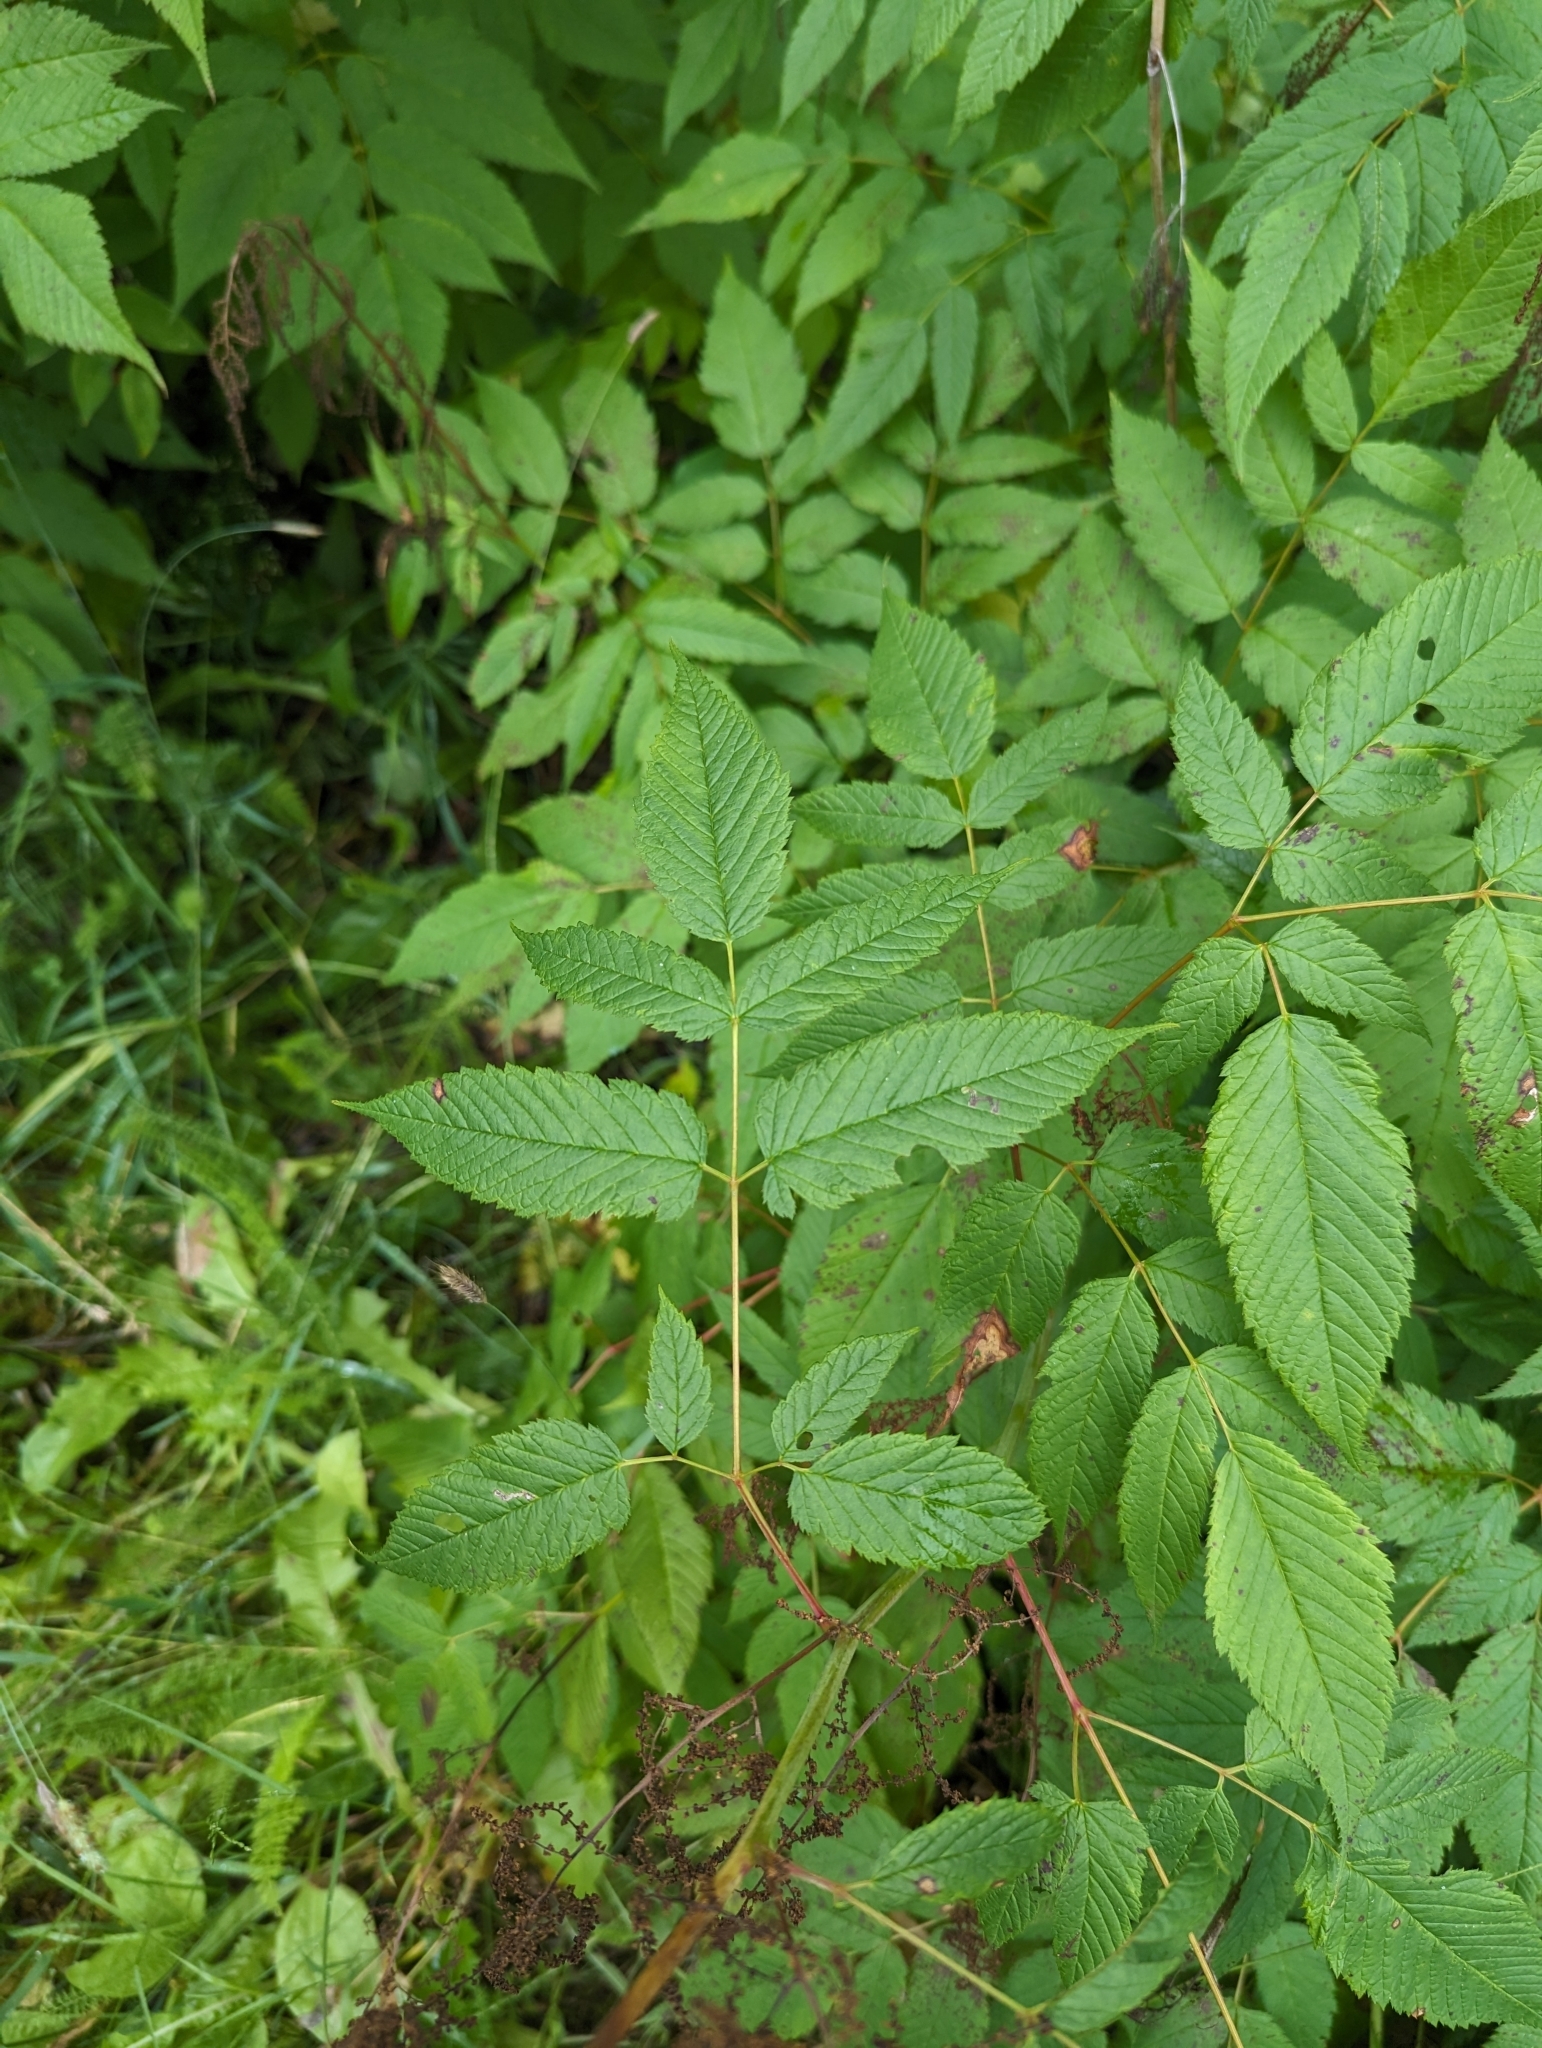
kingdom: Plantae
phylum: Tracheophyta
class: Magnoliopsida
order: Rosales
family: Rosaceae
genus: Aruncus
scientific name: Aruncus dioicus
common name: Buck's-beard
